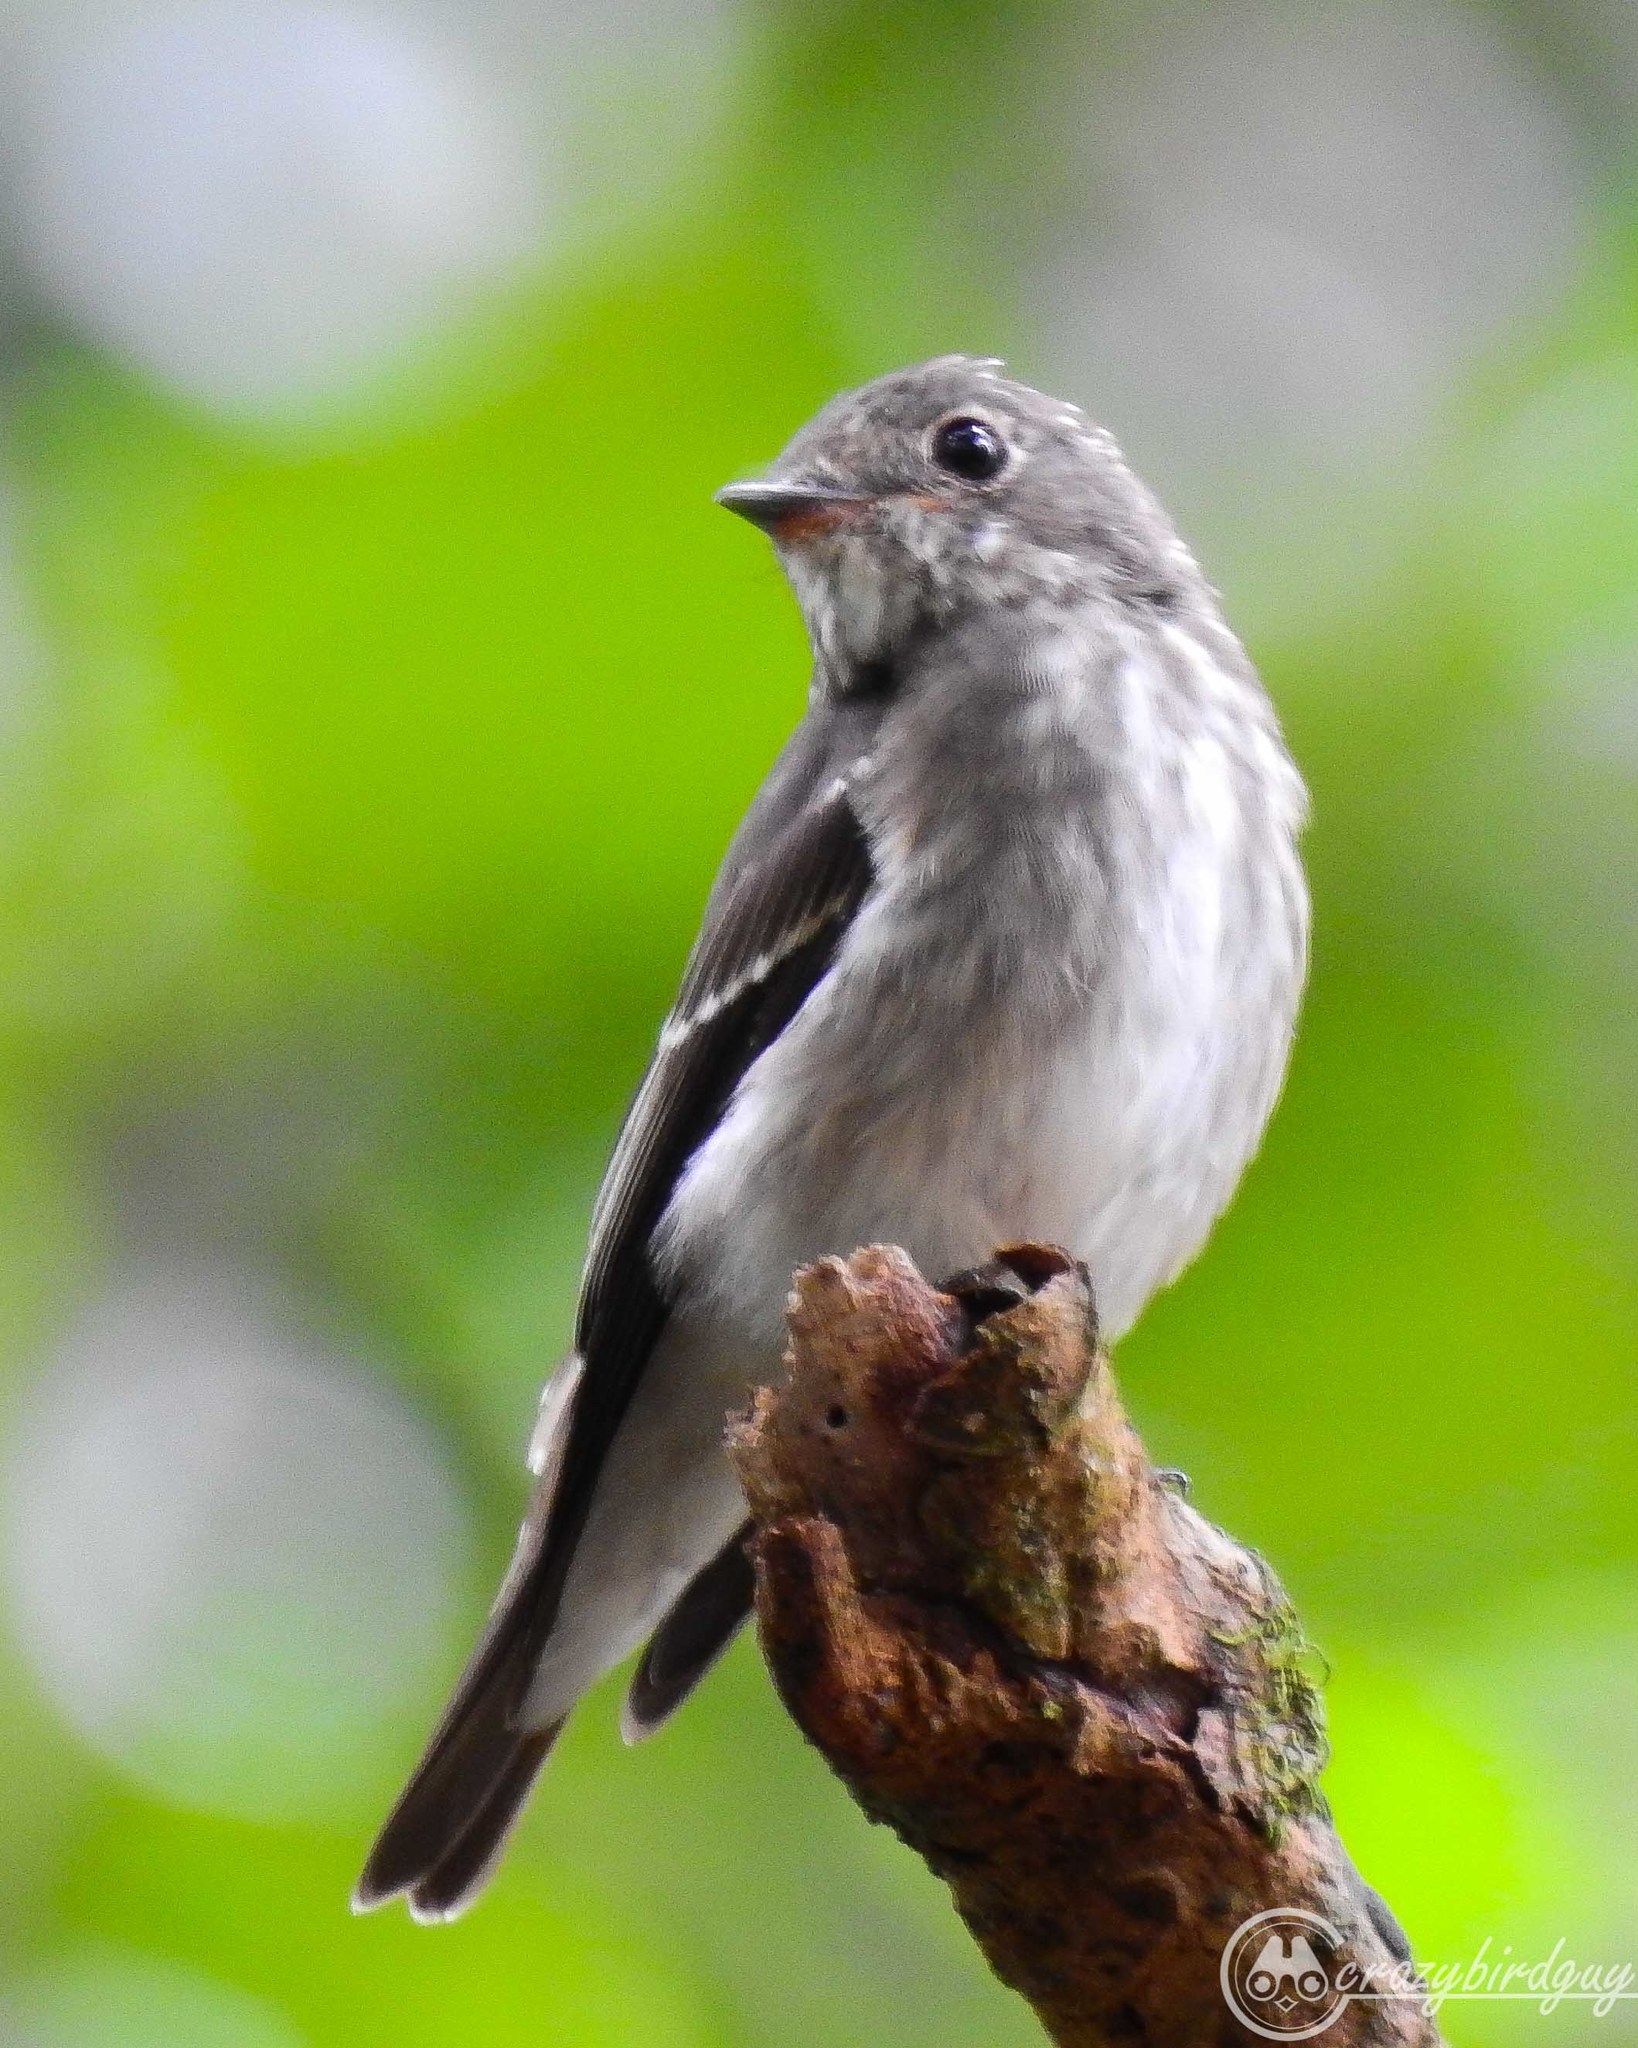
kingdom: Animalia
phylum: Chordata
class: Aves
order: Passeriformes
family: Muscicapidae
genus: Muscicapa
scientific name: Muscicapa sibirica
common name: Dark-sided flycatcher
